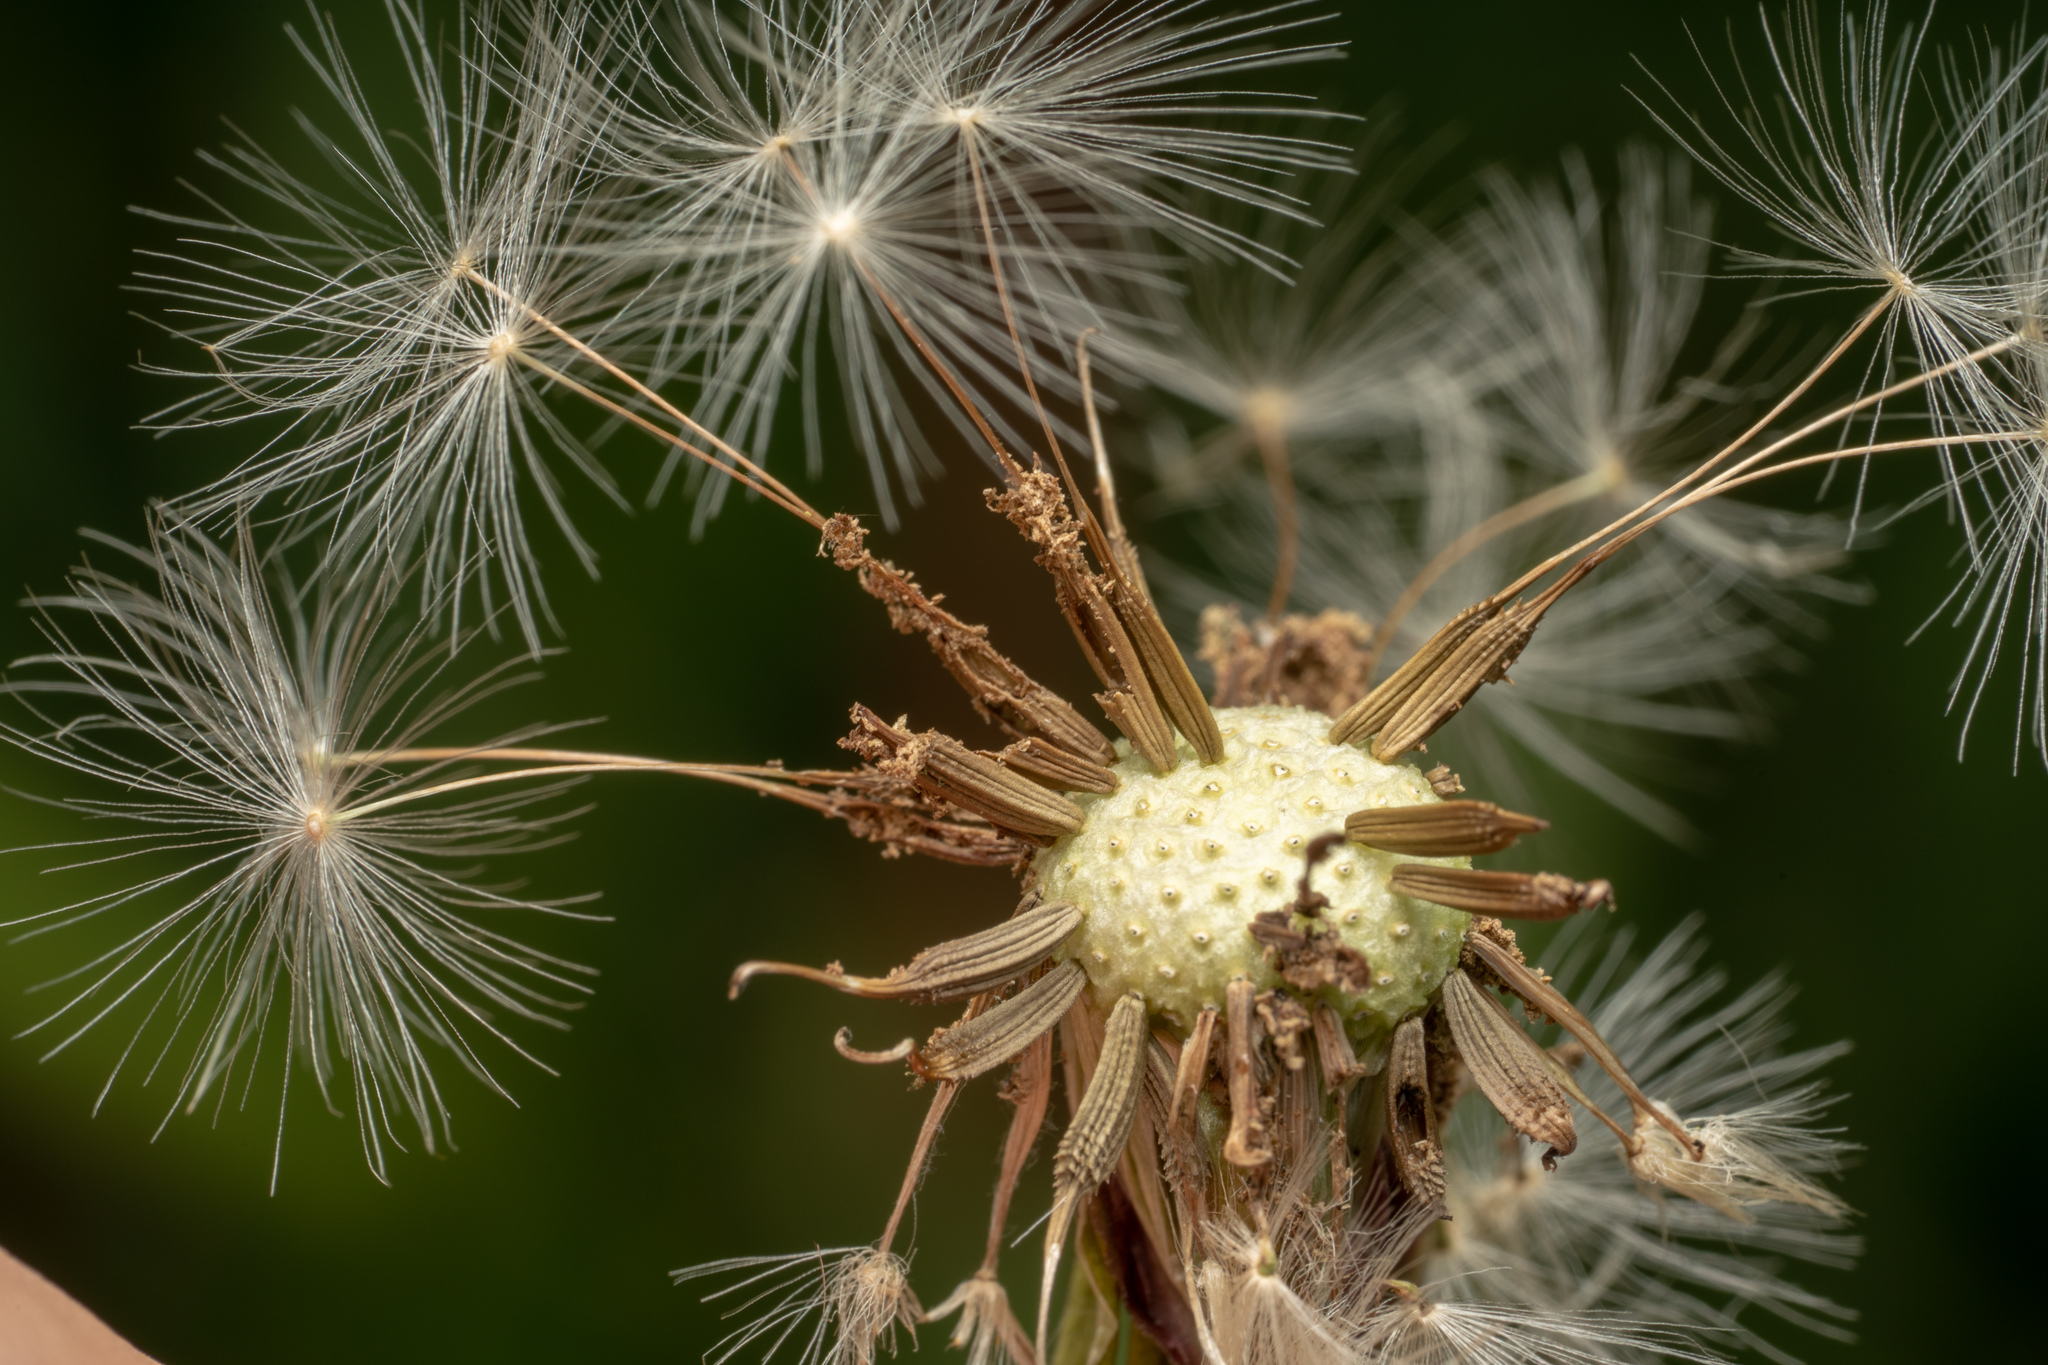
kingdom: Plantae
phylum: Tracheophyta
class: Magnoliopsida
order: Asterales
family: Asteraceae
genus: Taraxacum
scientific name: Taraxacum officinale
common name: Common dandelion
